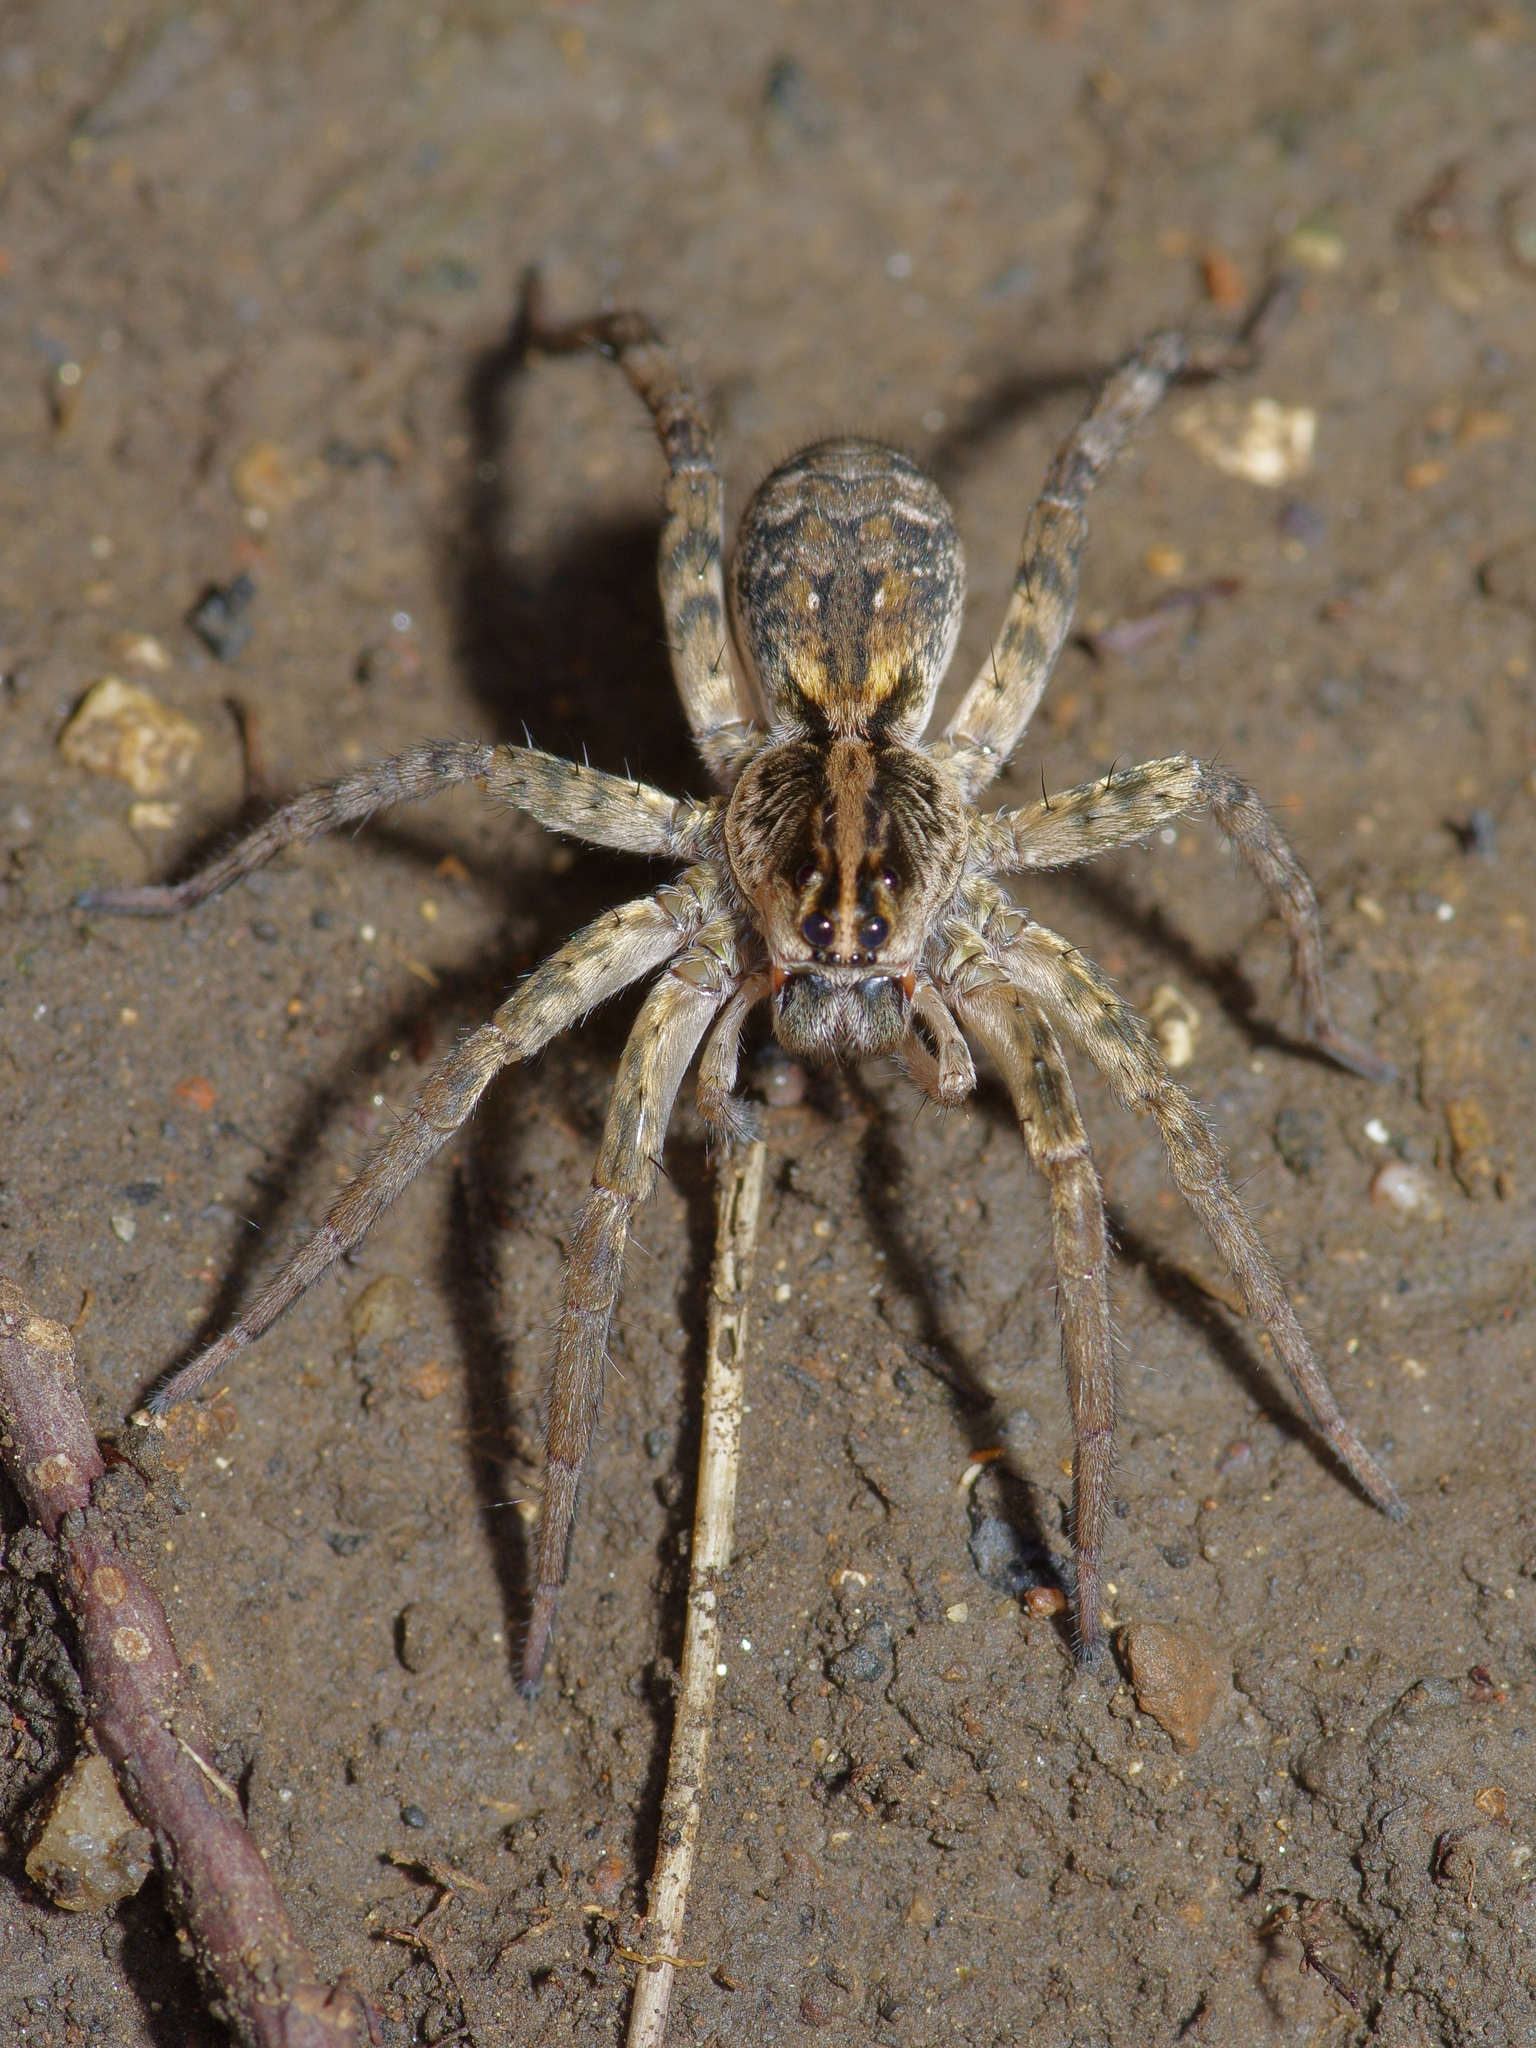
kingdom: Animalia
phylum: Arthropoda
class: Arachnida
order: Araneae
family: Lycosidae
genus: Hogna
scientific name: Hogna antelucana
